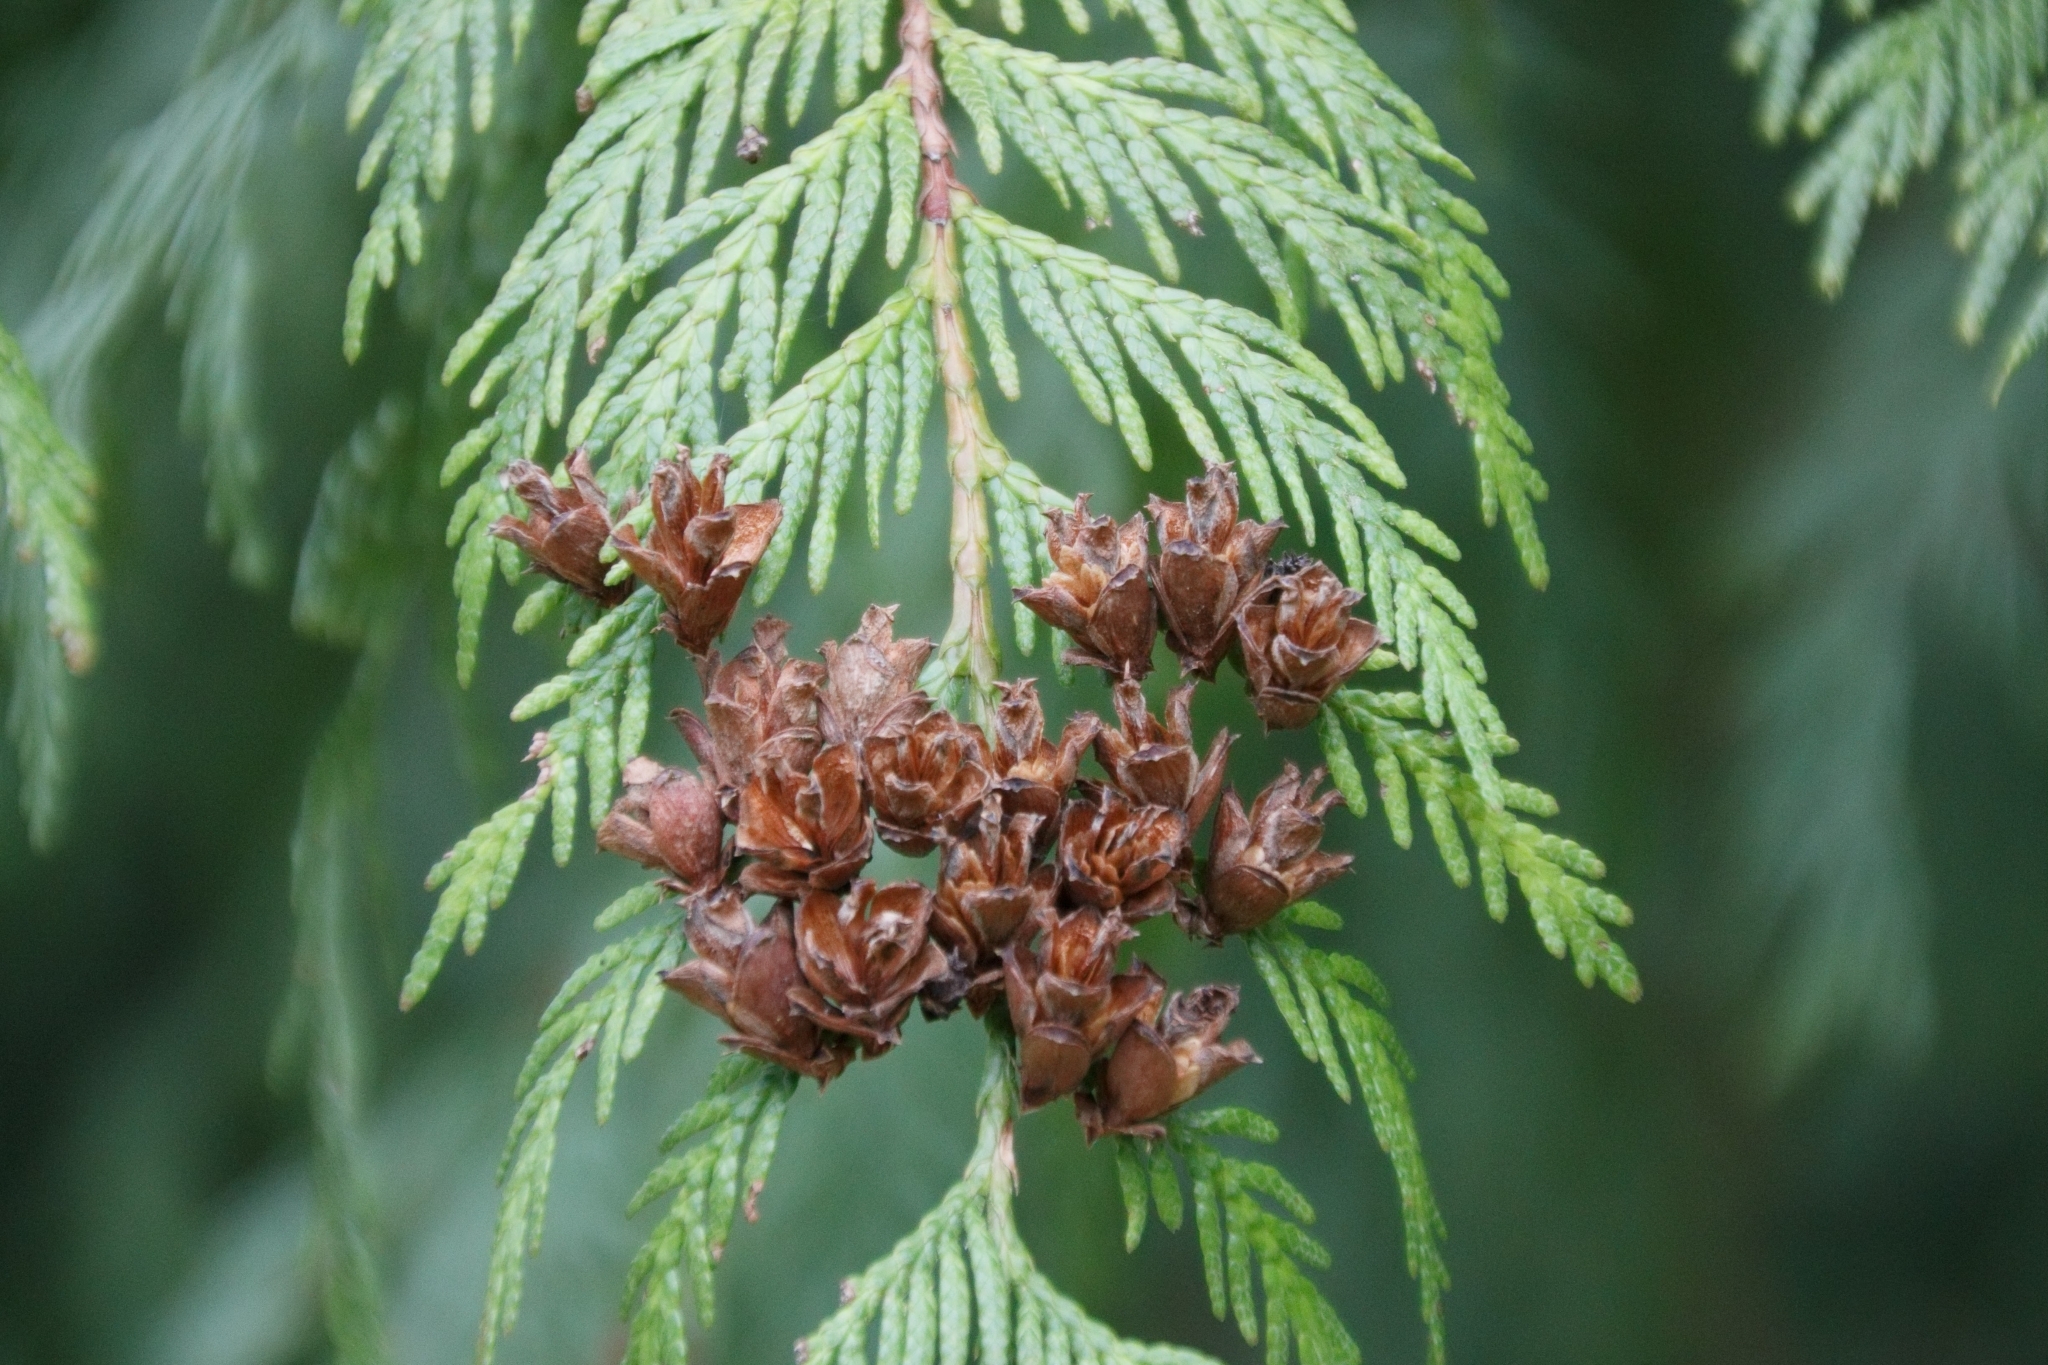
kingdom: Plantae
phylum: Tracheophyta
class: Pinopsida
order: Pinales
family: Cupressaceae
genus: Thuja
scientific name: Thuja plicata
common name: Western red-cedar
